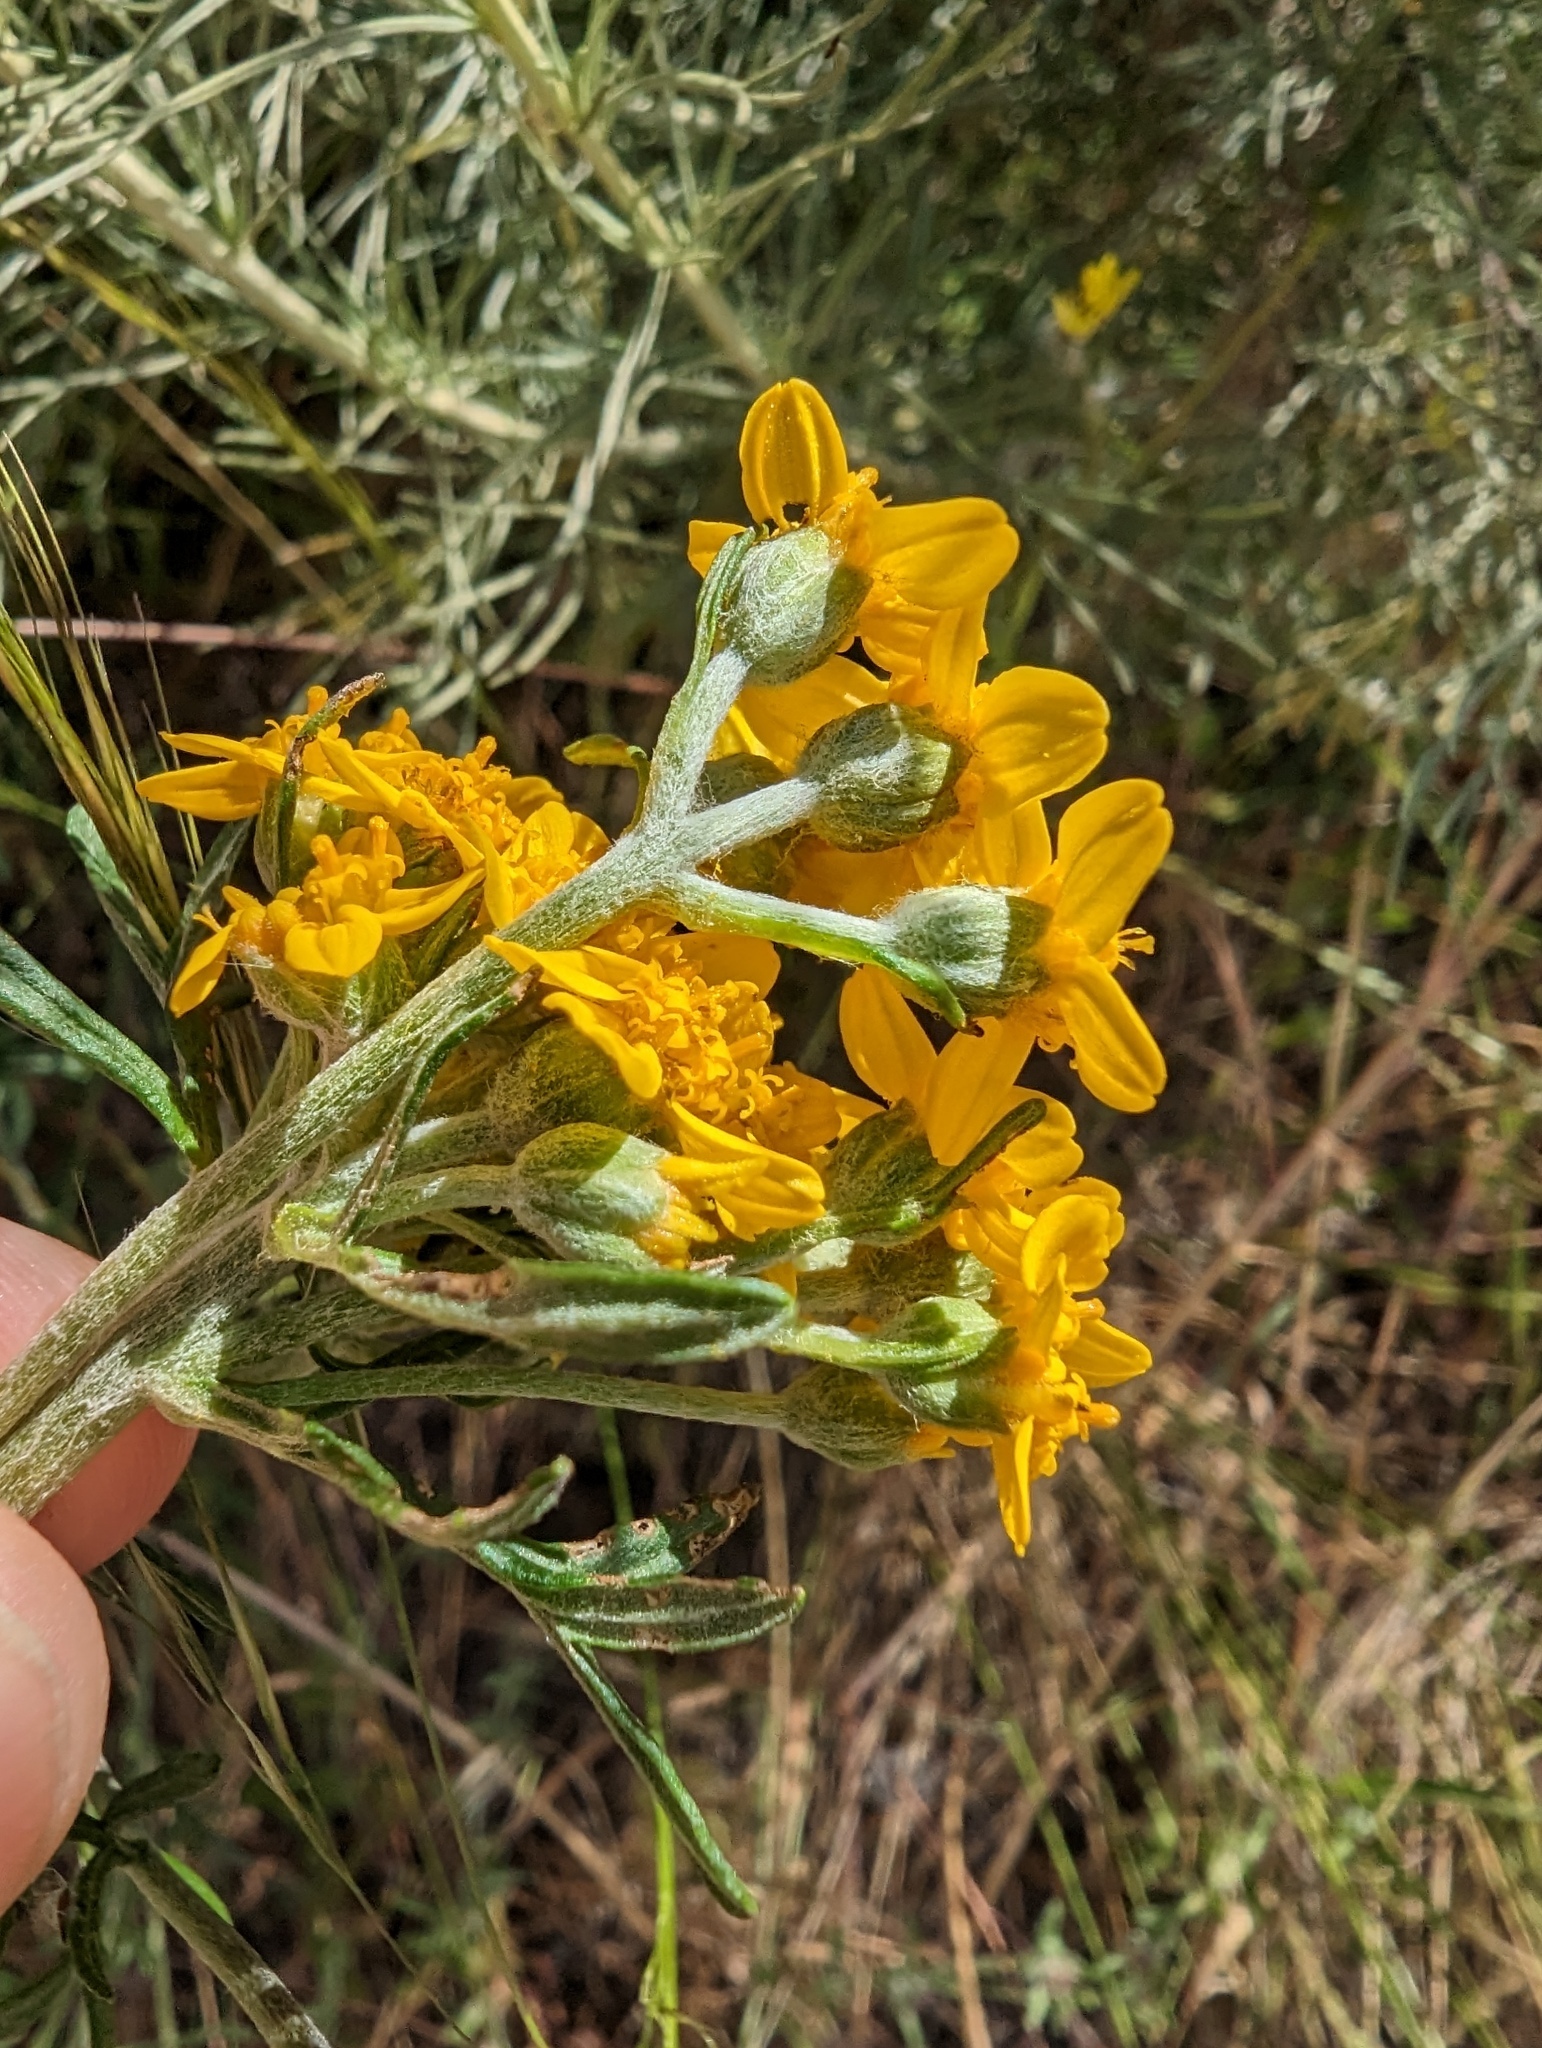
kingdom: Plantae
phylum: Tracheophyta
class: Magnoliopsida
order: Asterales
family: Asteraceae
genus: Eriophyllum
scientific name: Eriophyllum confertiflorum
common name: Golden-yarrow
